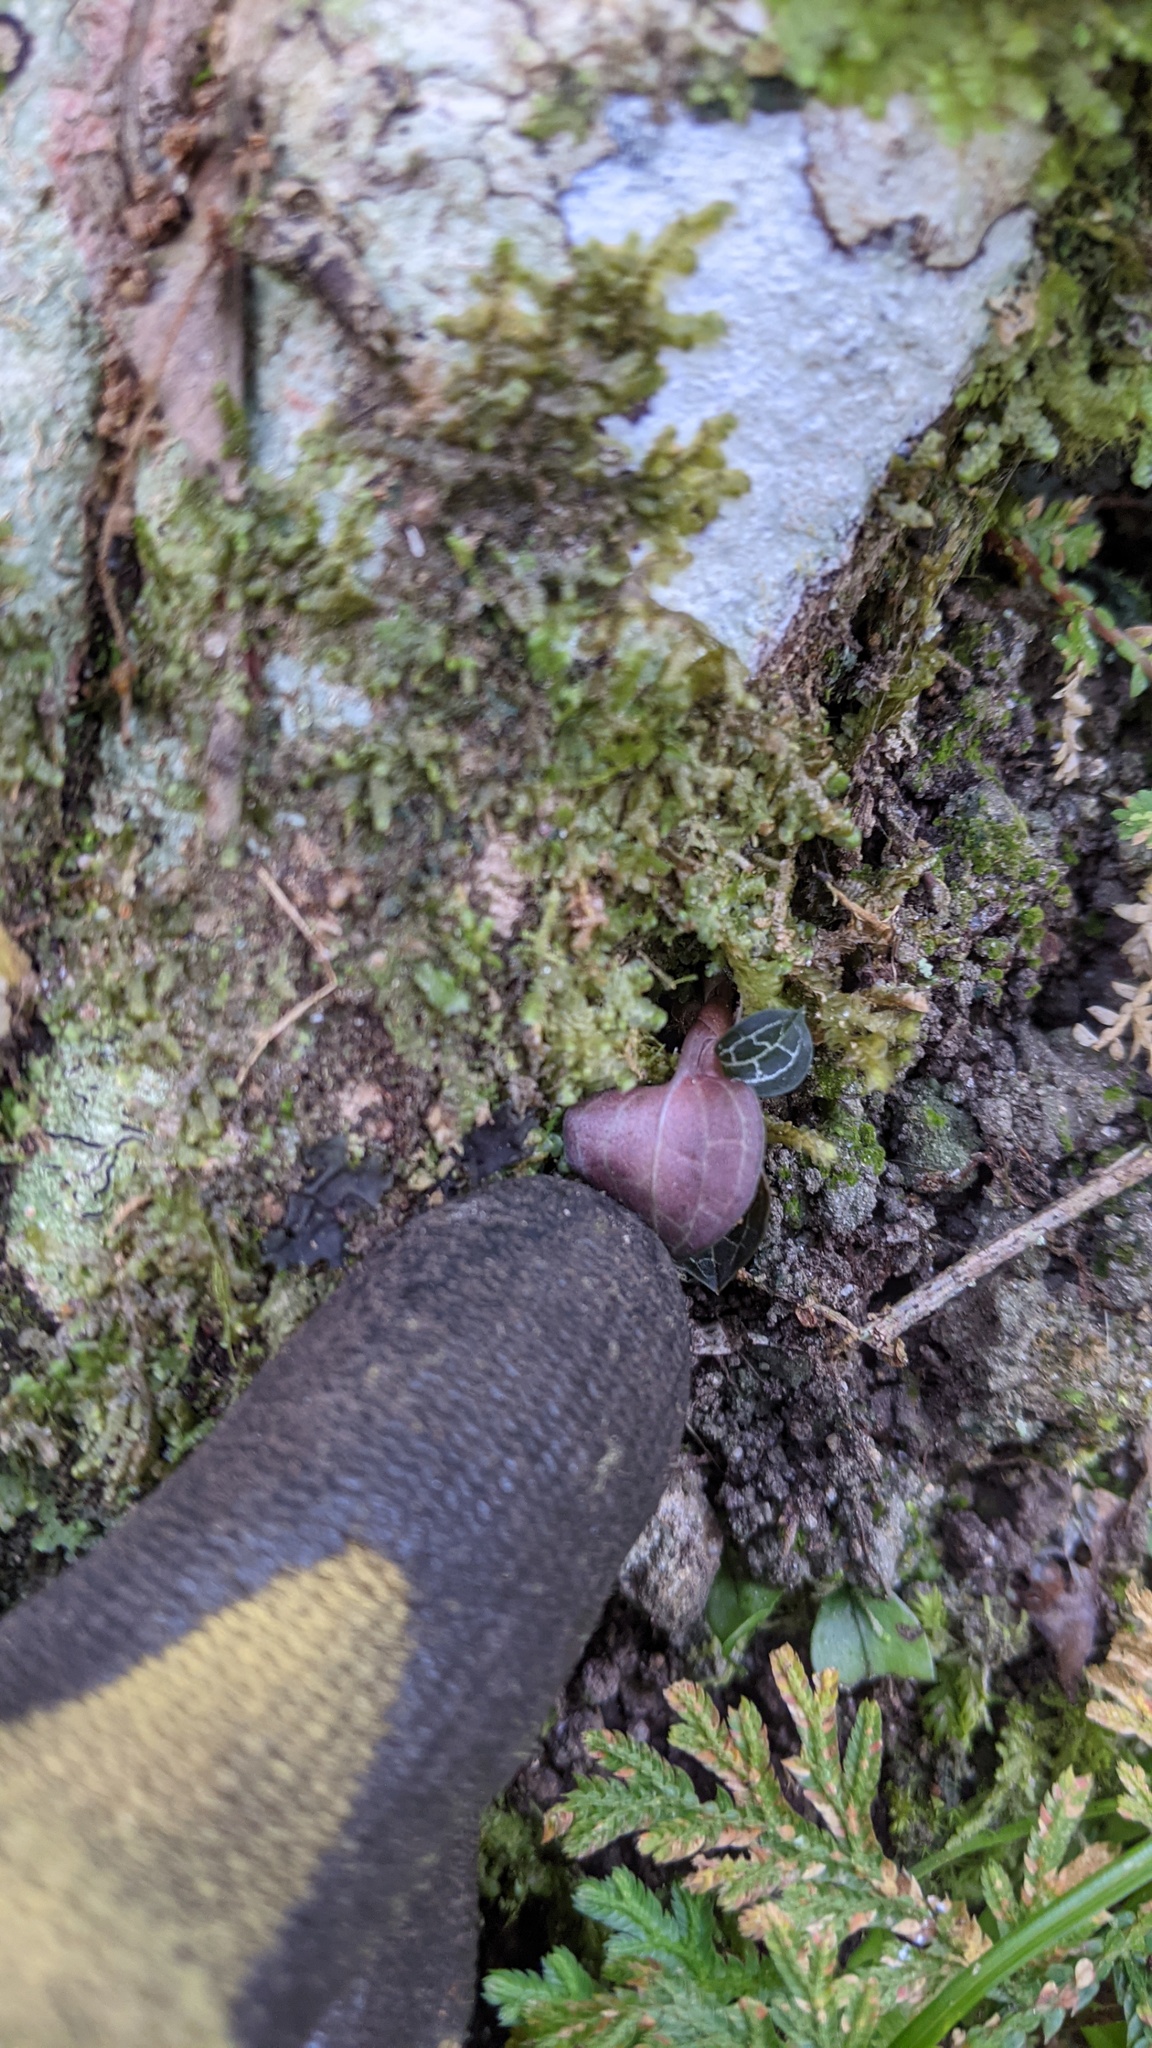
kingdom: Plantae
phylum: Tracheophyta
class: Liliopsida
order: Asparagales
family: Orchidaceae
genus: Anoectochilus
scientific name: Anoectochilus formosanus
